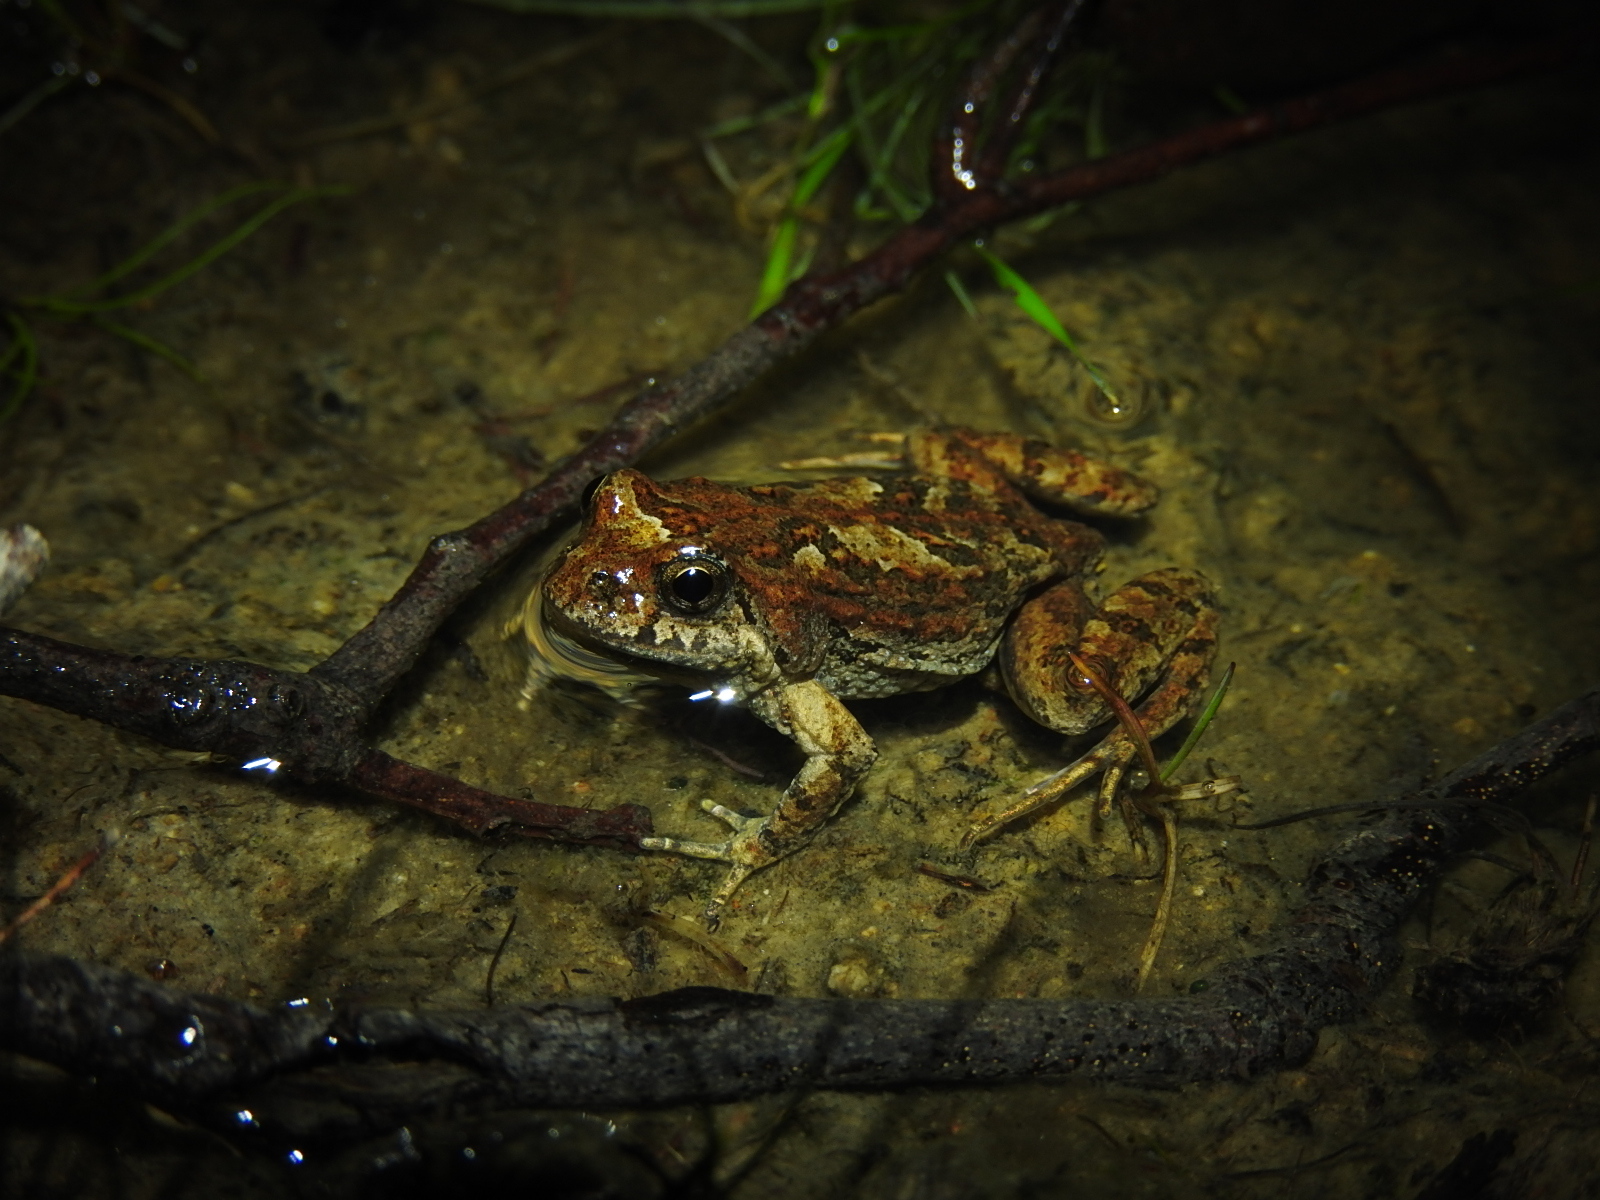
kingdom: Animalia
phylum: Chordata
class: Amphibia
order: Anura
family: Myobatrachidae
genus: Crinia
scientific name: Crinia signifera
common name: Brown froglet
